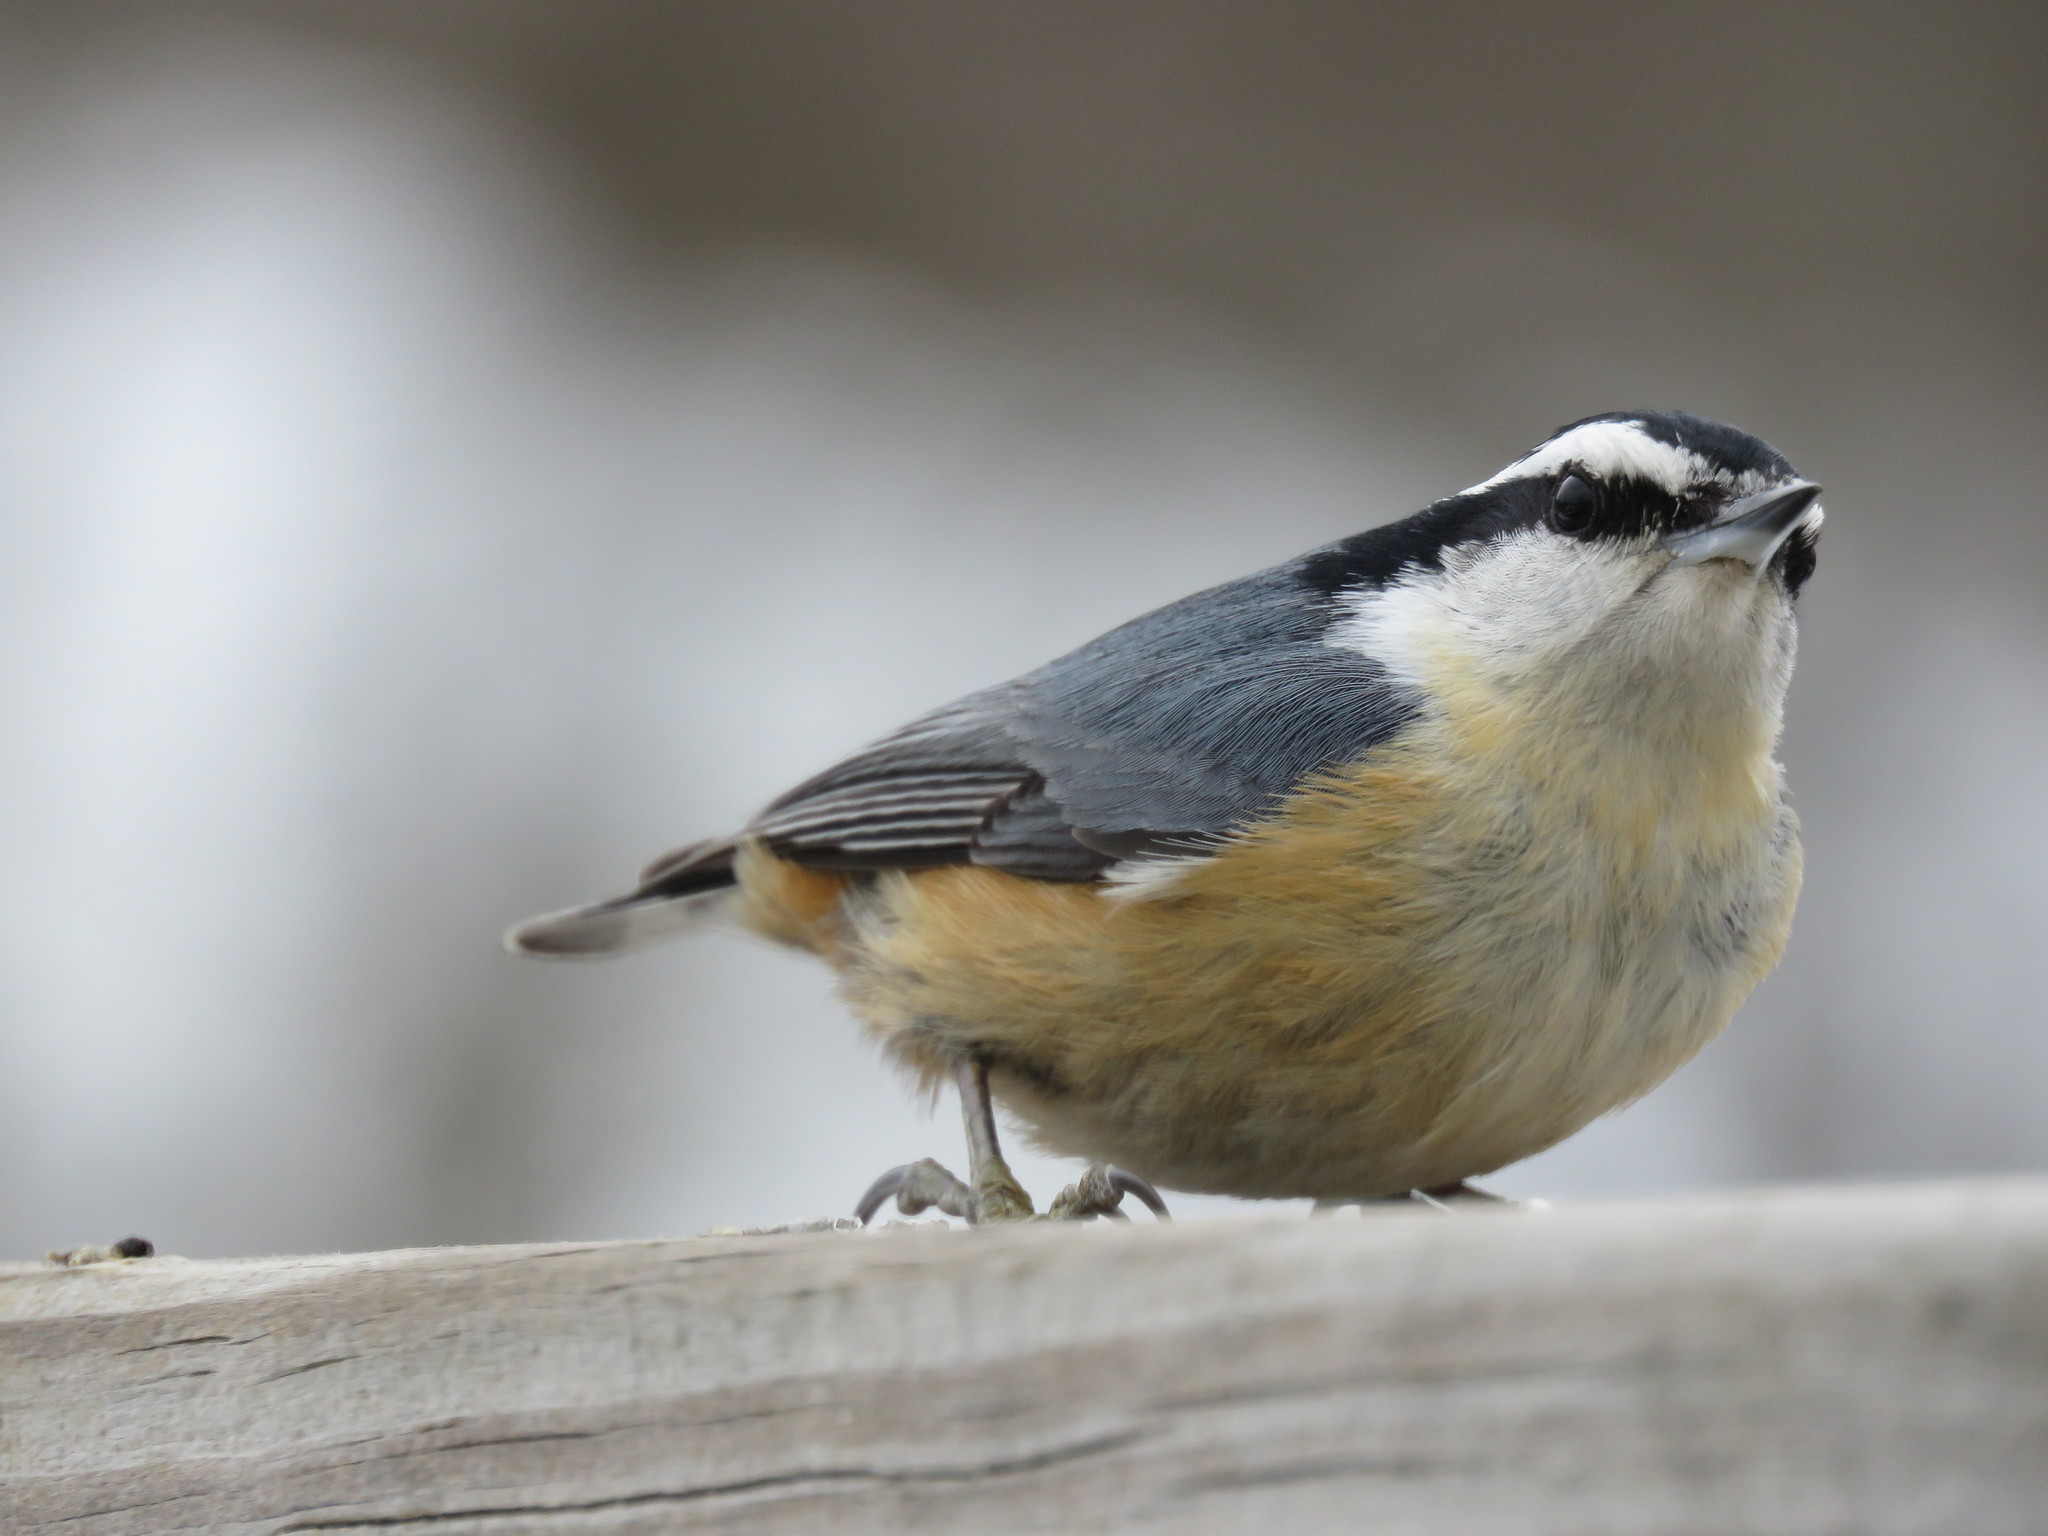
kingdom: Animalia
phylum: Chordata
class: Aves
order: Passeriformes
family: Sittidae
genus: Sitta
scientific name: Sitta canadensis
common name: Red-breasted nuthatch
